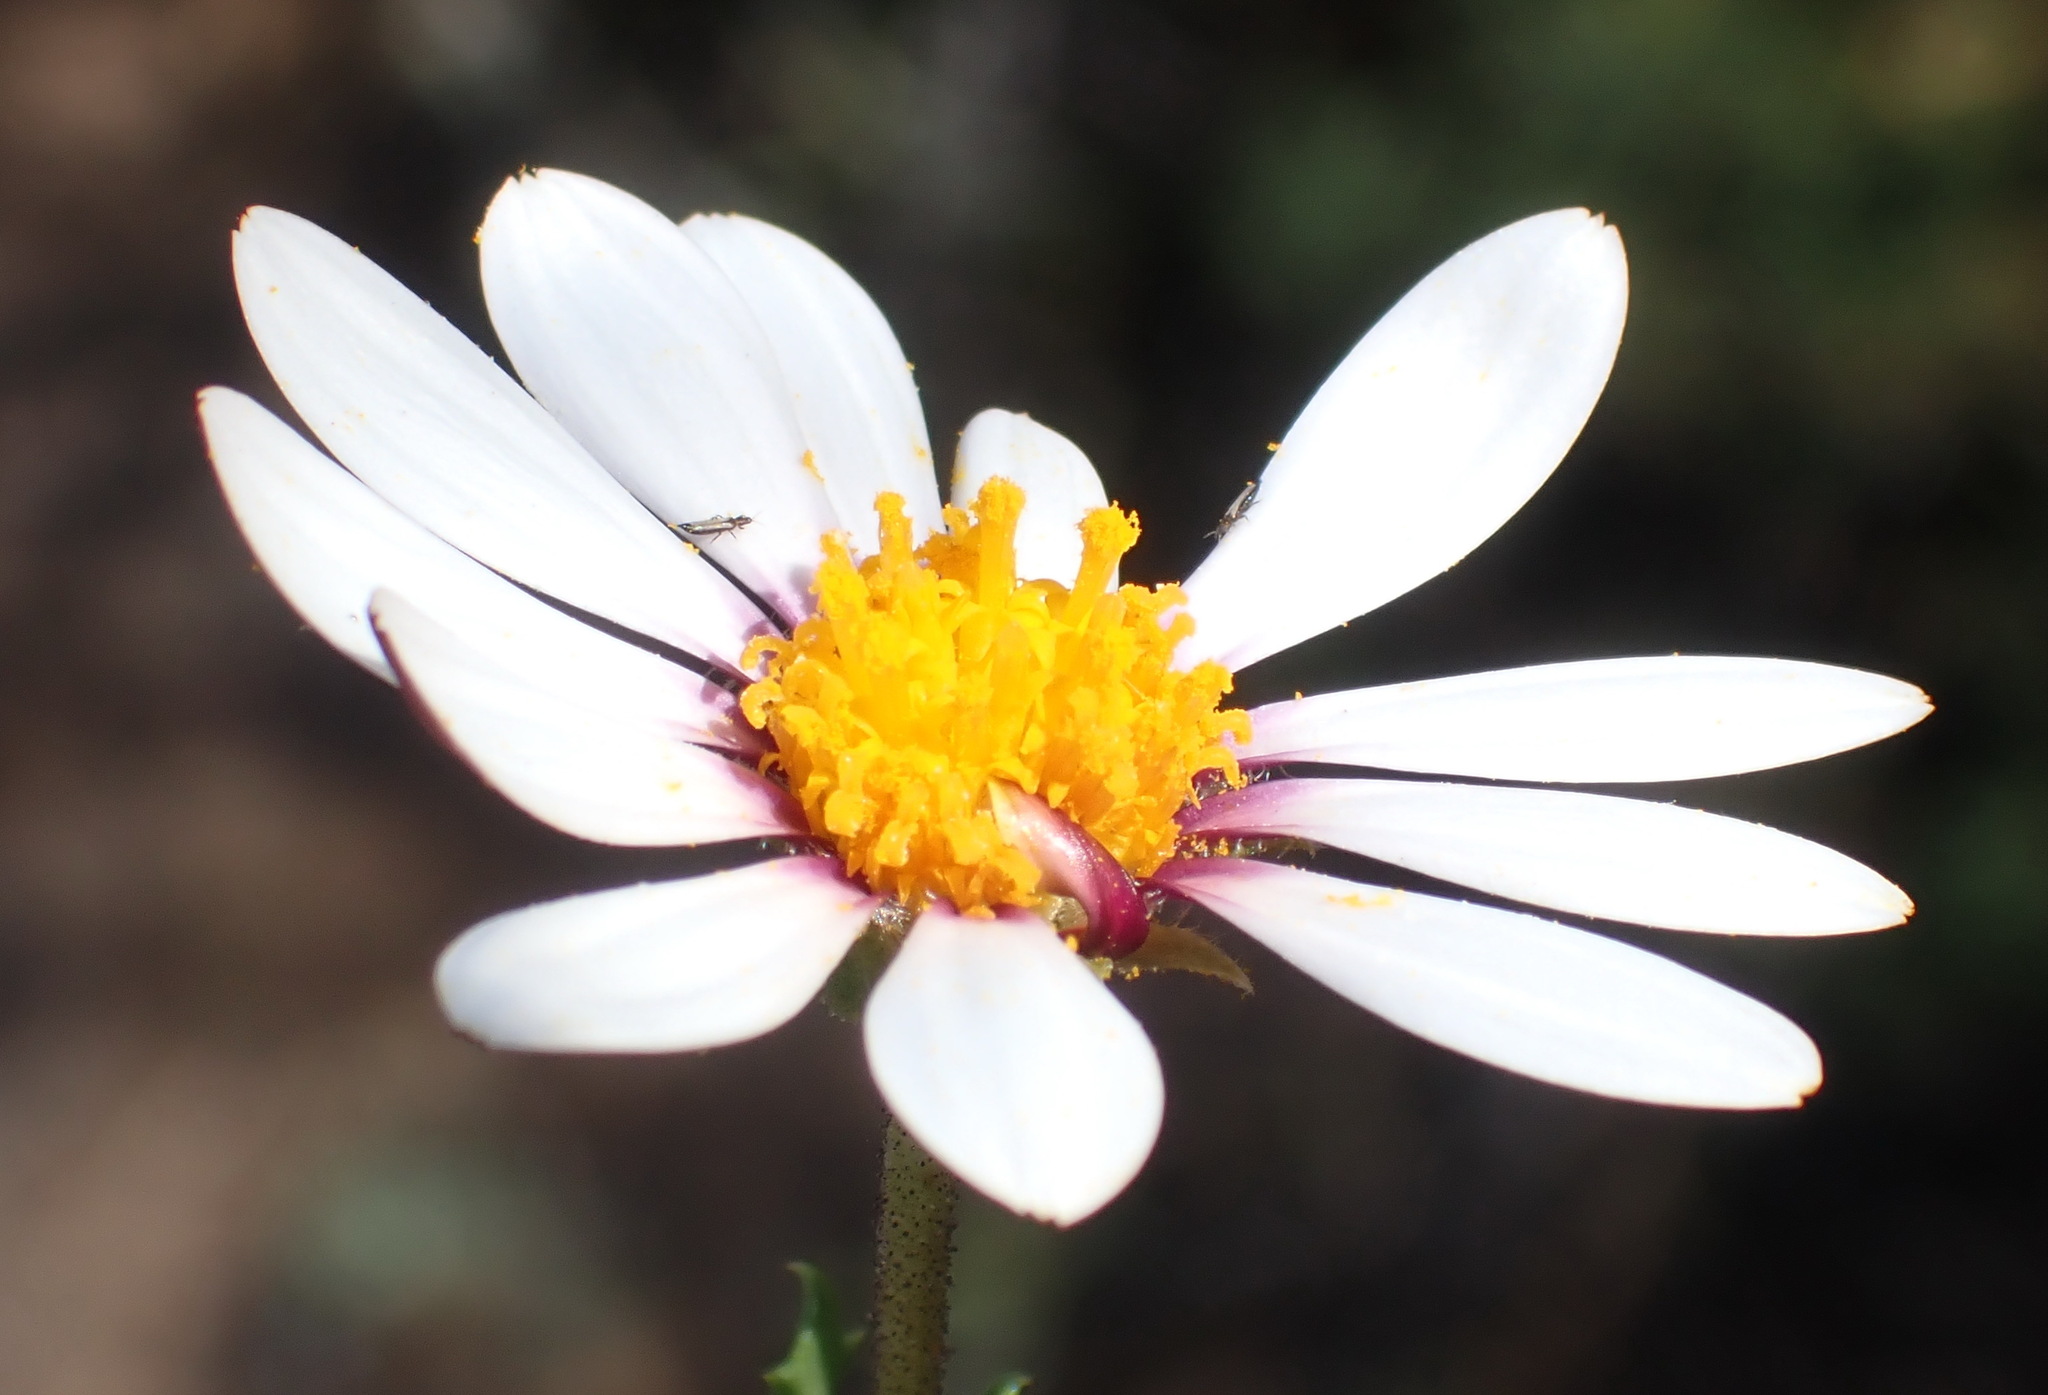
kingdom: Plantae
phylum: Tracheophyta
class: Magnoliopsida
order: Asterales
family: Asteraceae
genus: Dimorphotheca
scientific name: Dimorphotheca cuneata
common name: Daisy
